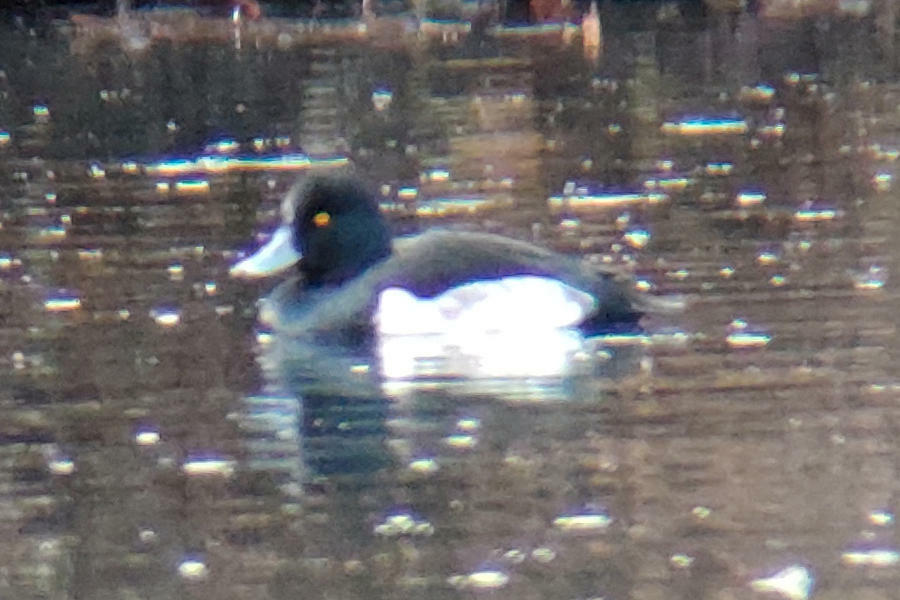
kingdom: Animalia
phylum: Chordata
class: Aves
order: Anseriformes
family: Anatidae
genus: Aythya
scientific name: Aythya fuligula
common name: Tufted duck
